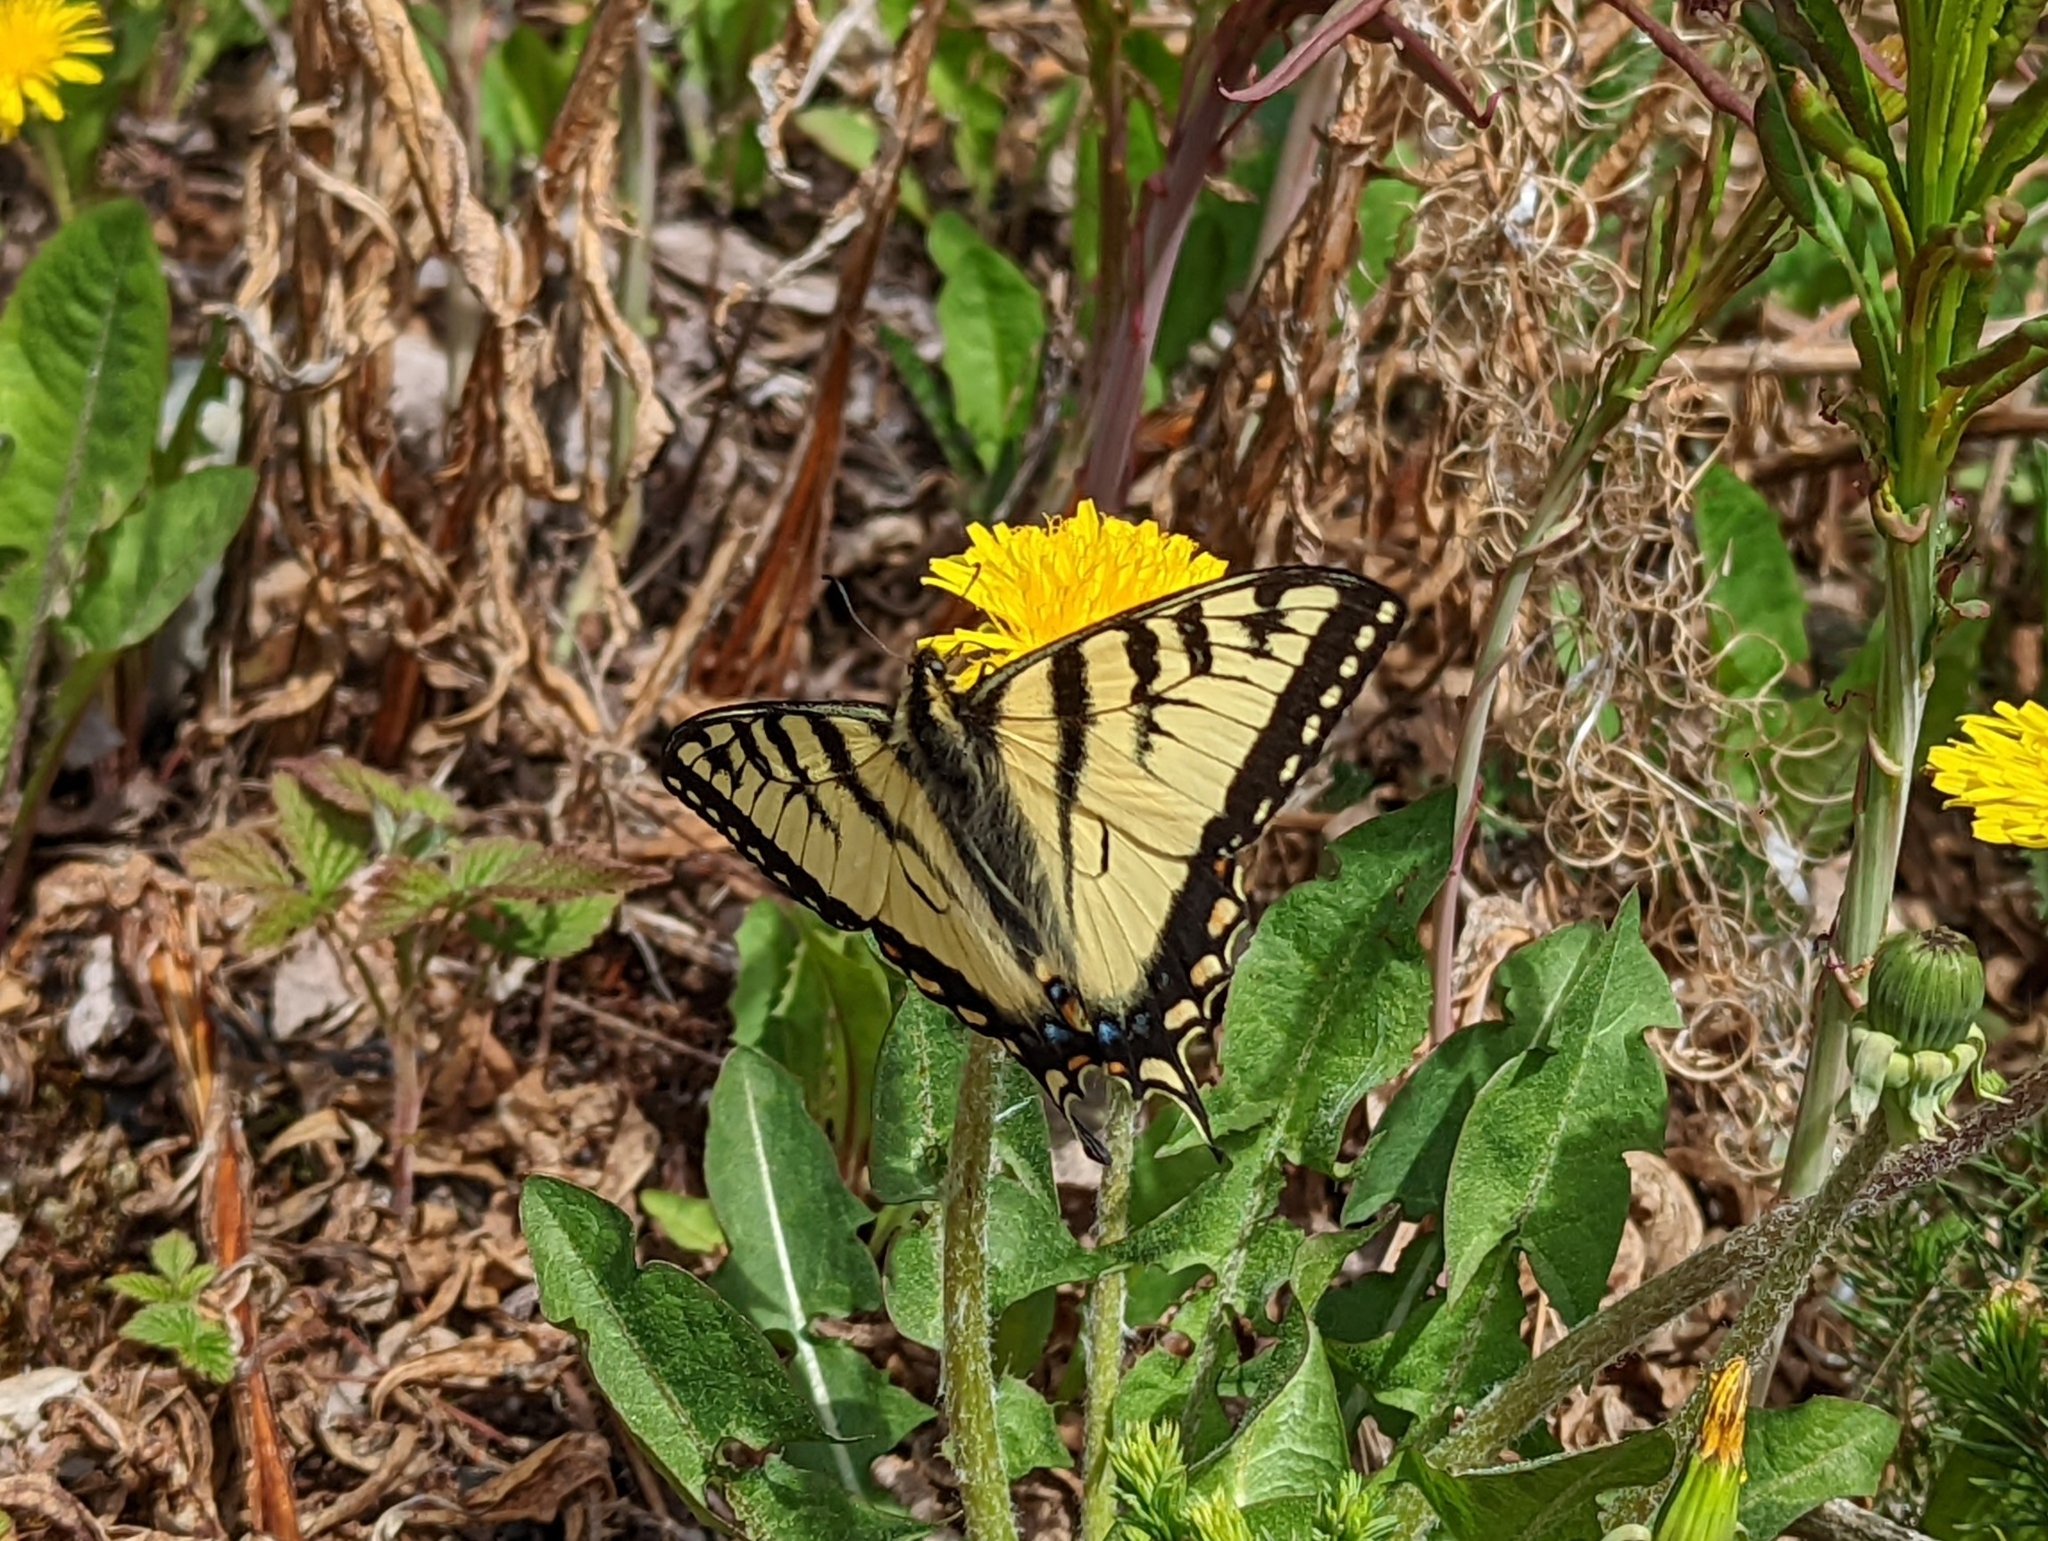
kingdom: Animalia
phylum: Arthropoda
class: Insecta
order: Lepidoptera
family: Papilionidae
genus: Papilio
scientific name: Papilio canadensis
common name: Canadian tiger swallowtail
